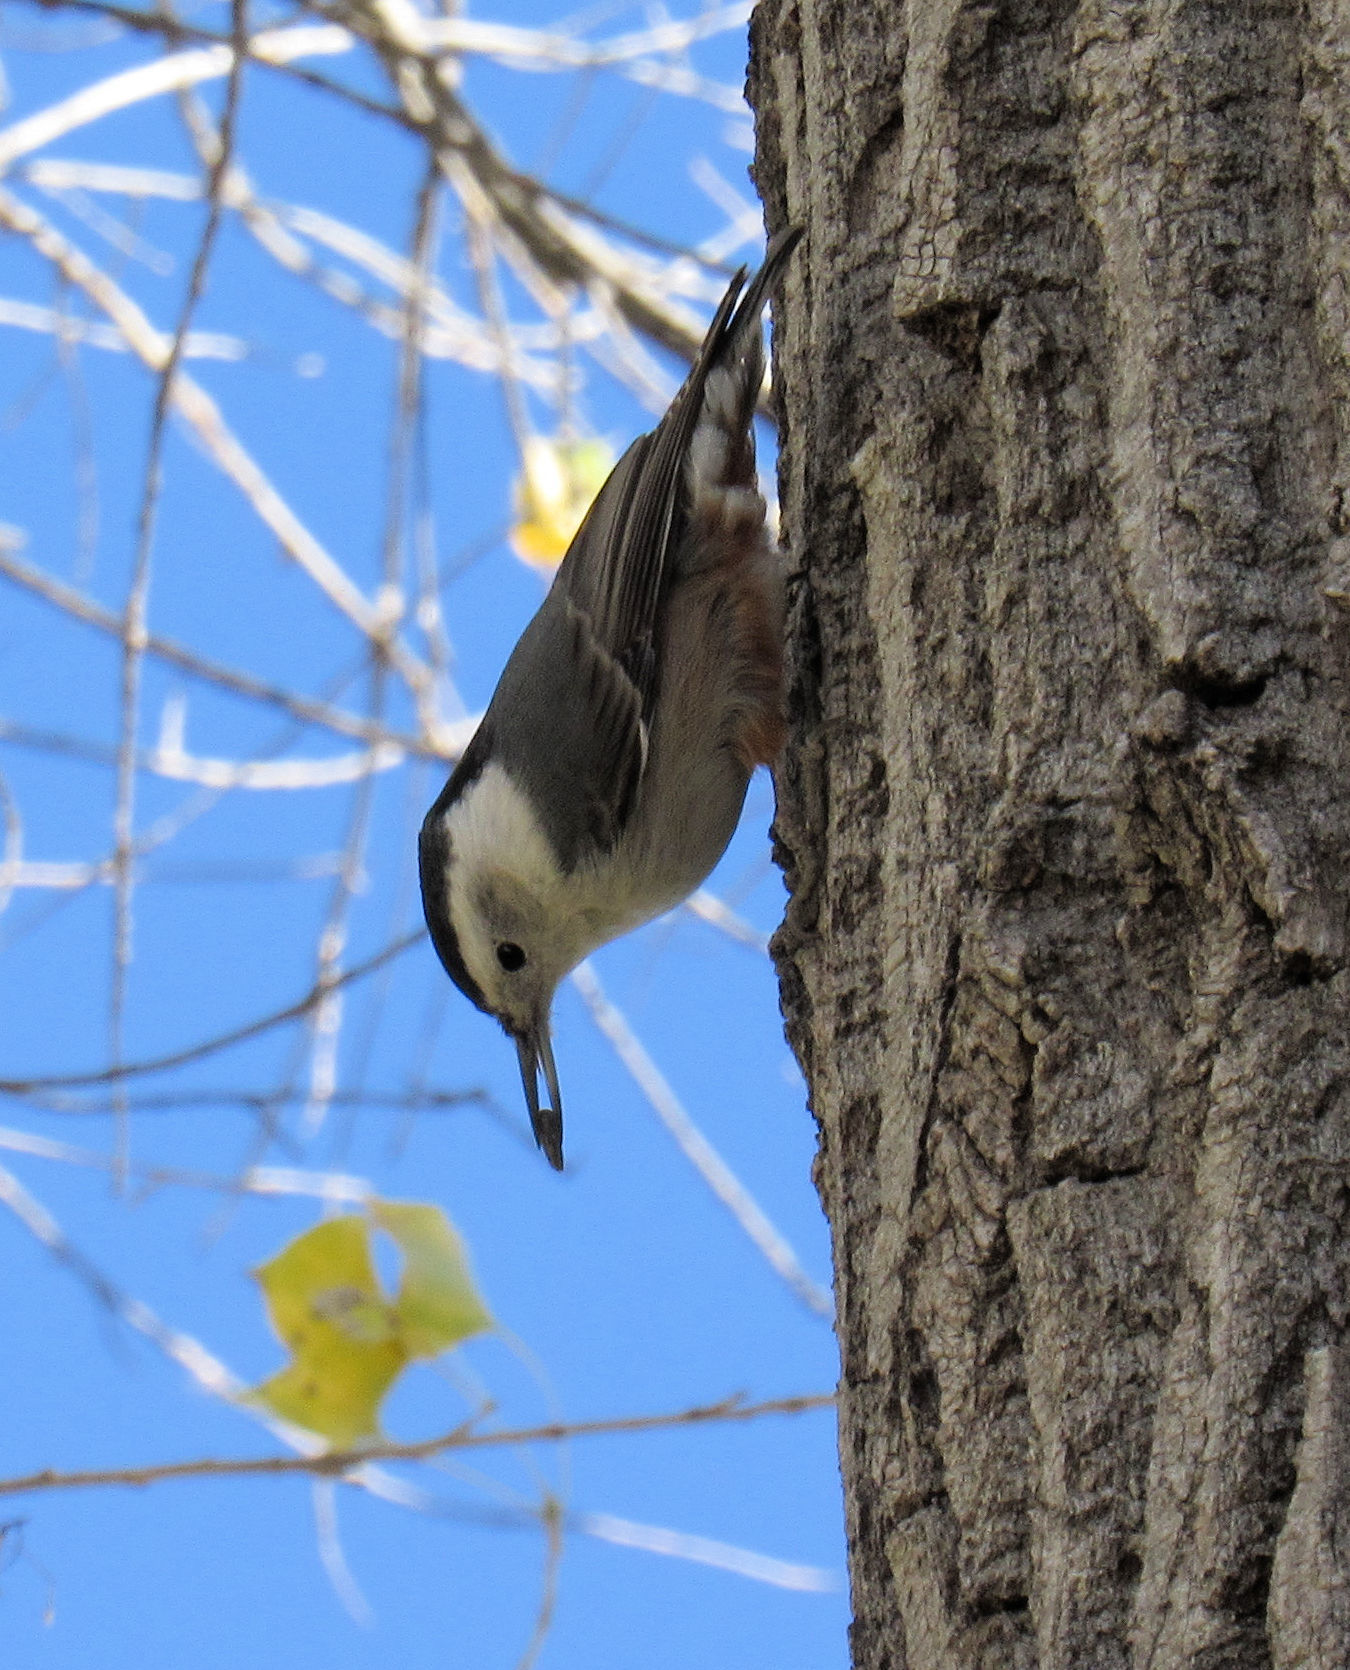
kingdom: Animalia
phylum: Chordata
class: Aves
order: Passeriformes
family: Sittidae
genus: Sitta
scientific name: Sitta carolinensis
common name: White-breasted nuthatch
